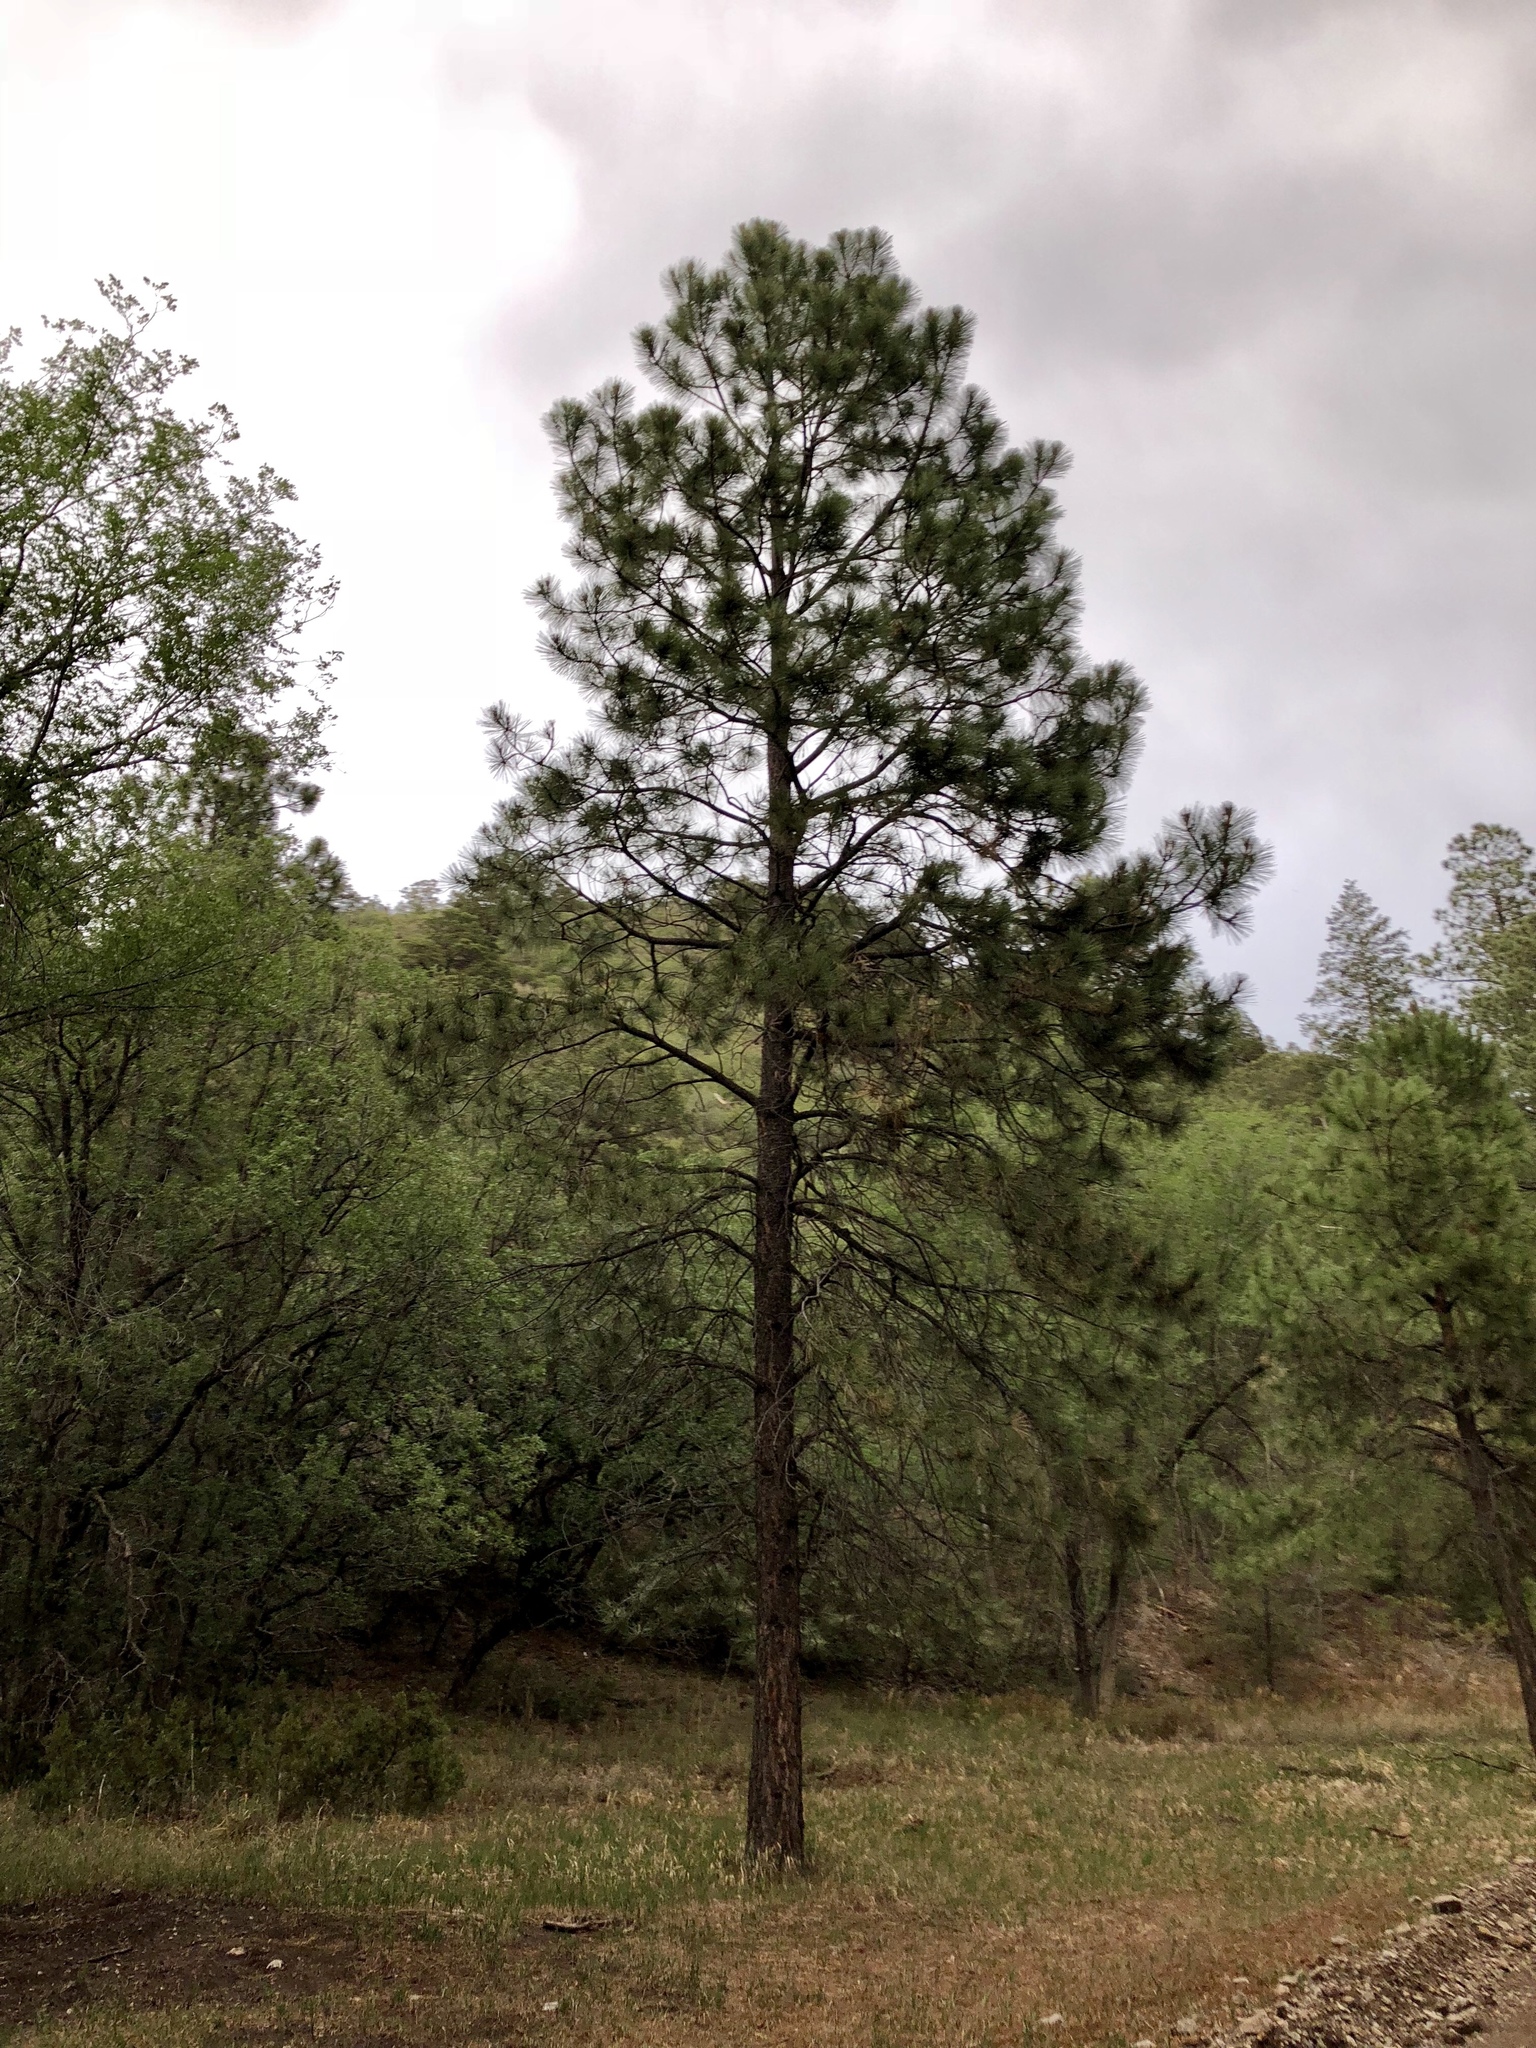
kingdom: Plantae
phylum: Tracheophyta
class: Pinopsida
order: Pinales
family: Pinaceae
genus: Pinus
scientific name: Pinus ponderosa
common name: Western yellow-pine
